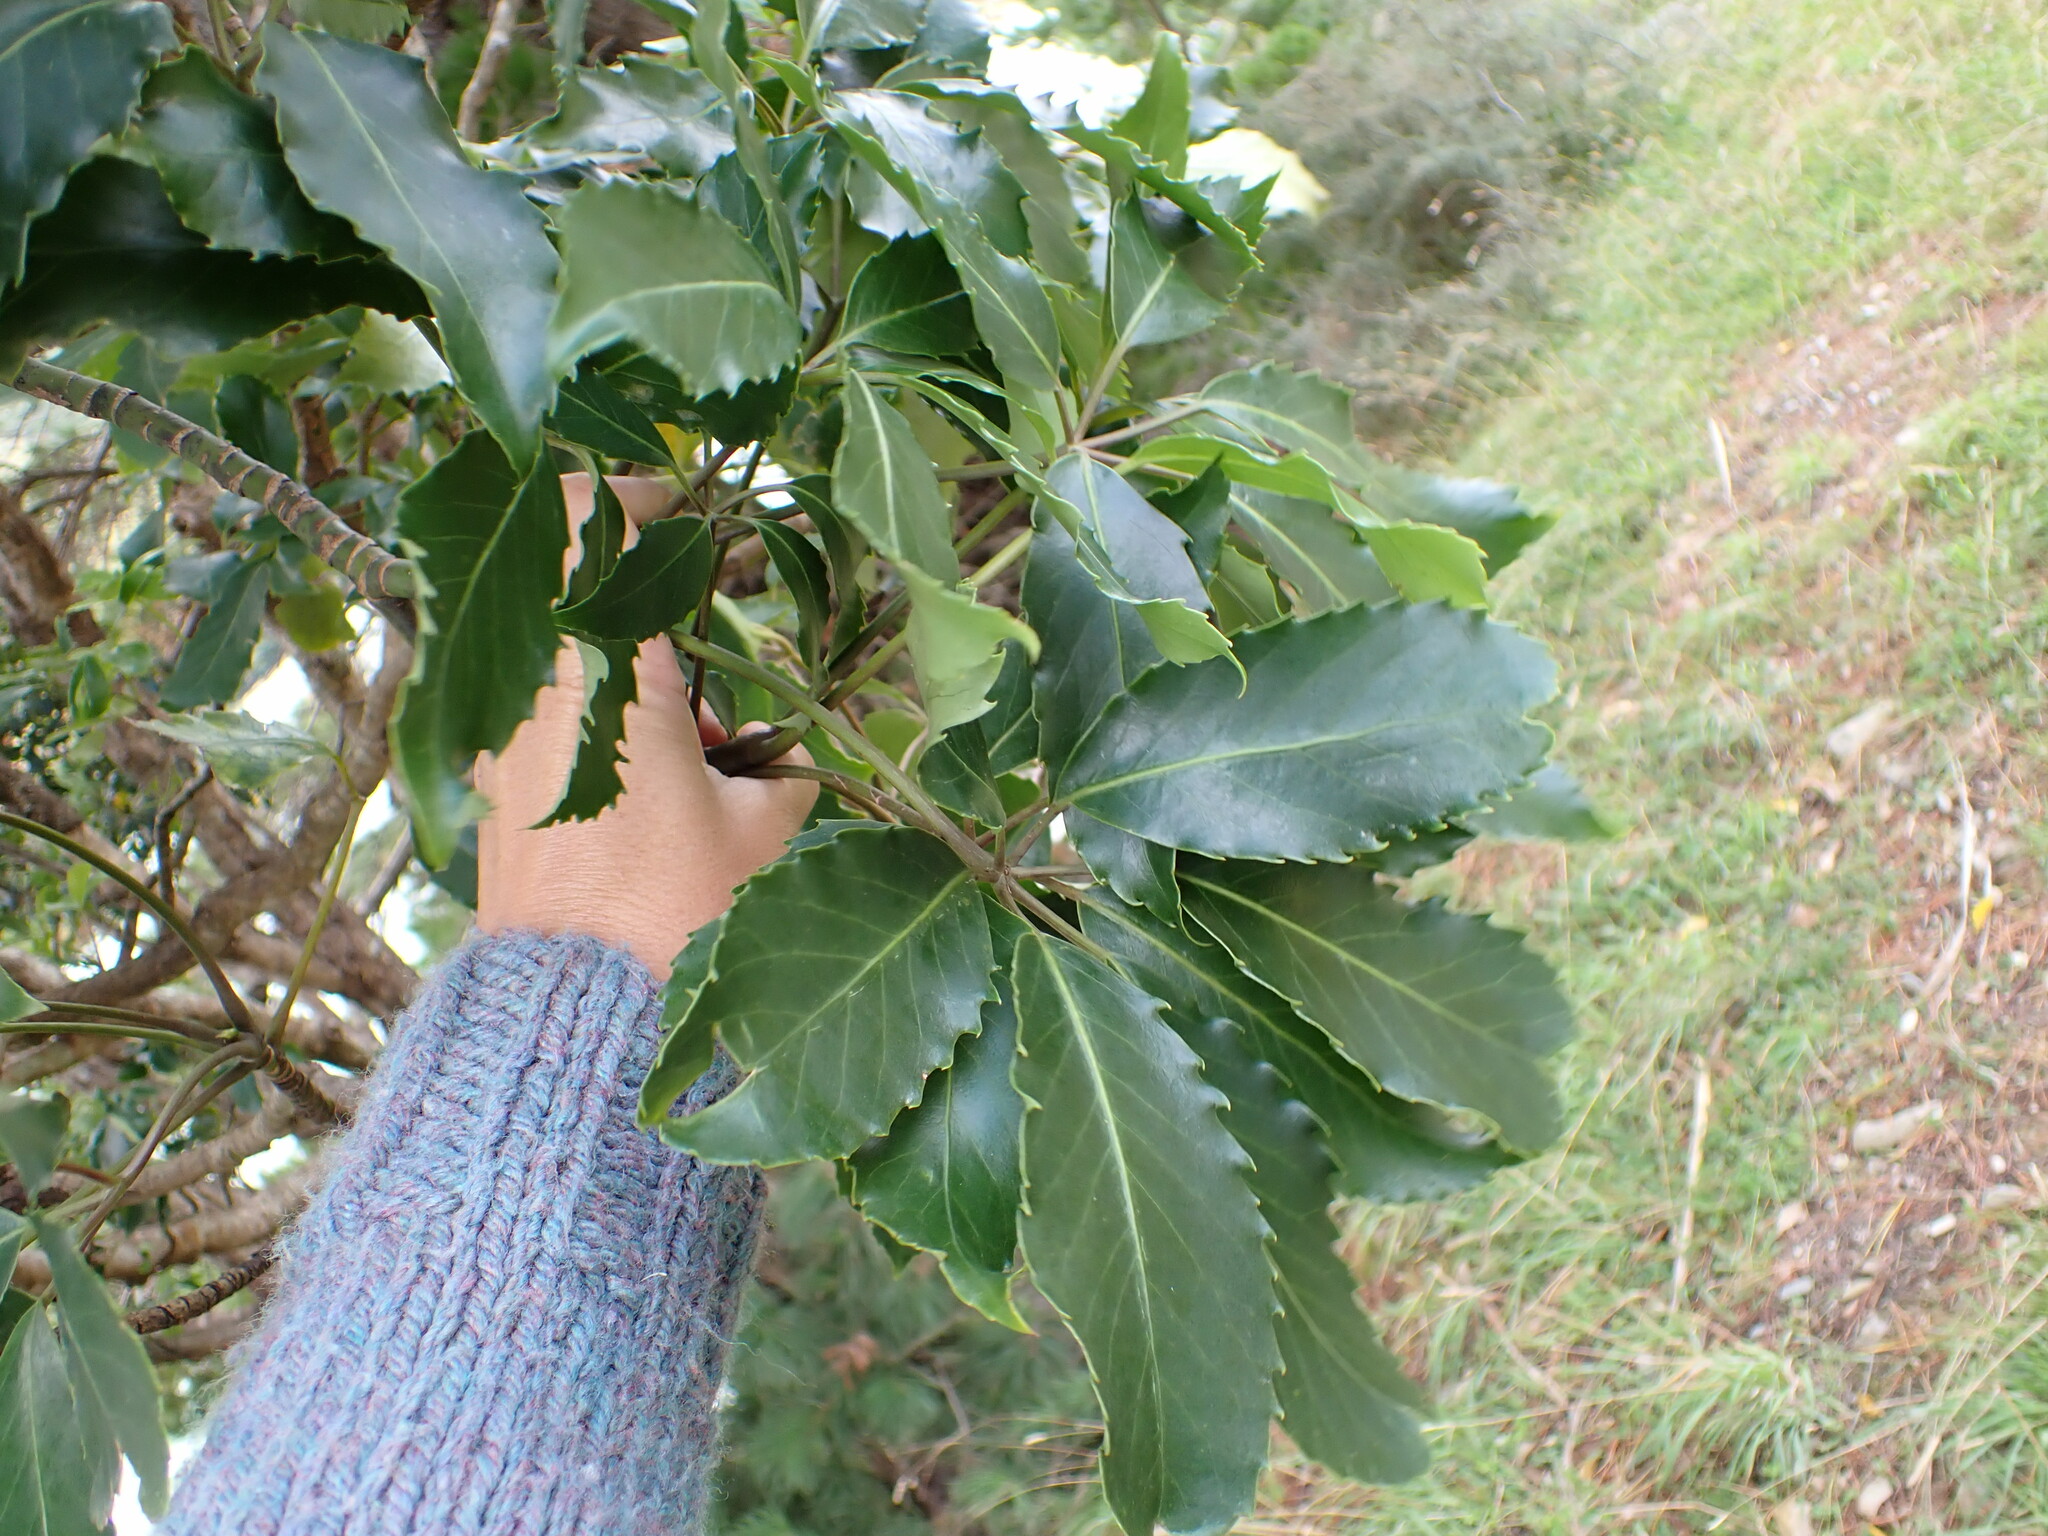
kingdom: Plantae
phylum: Tracheophyta
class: Magnoliopsida
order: Apiales
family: Araliaceae
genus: Neopanax
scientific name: Neopanax arboreus
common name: Five-fingers
